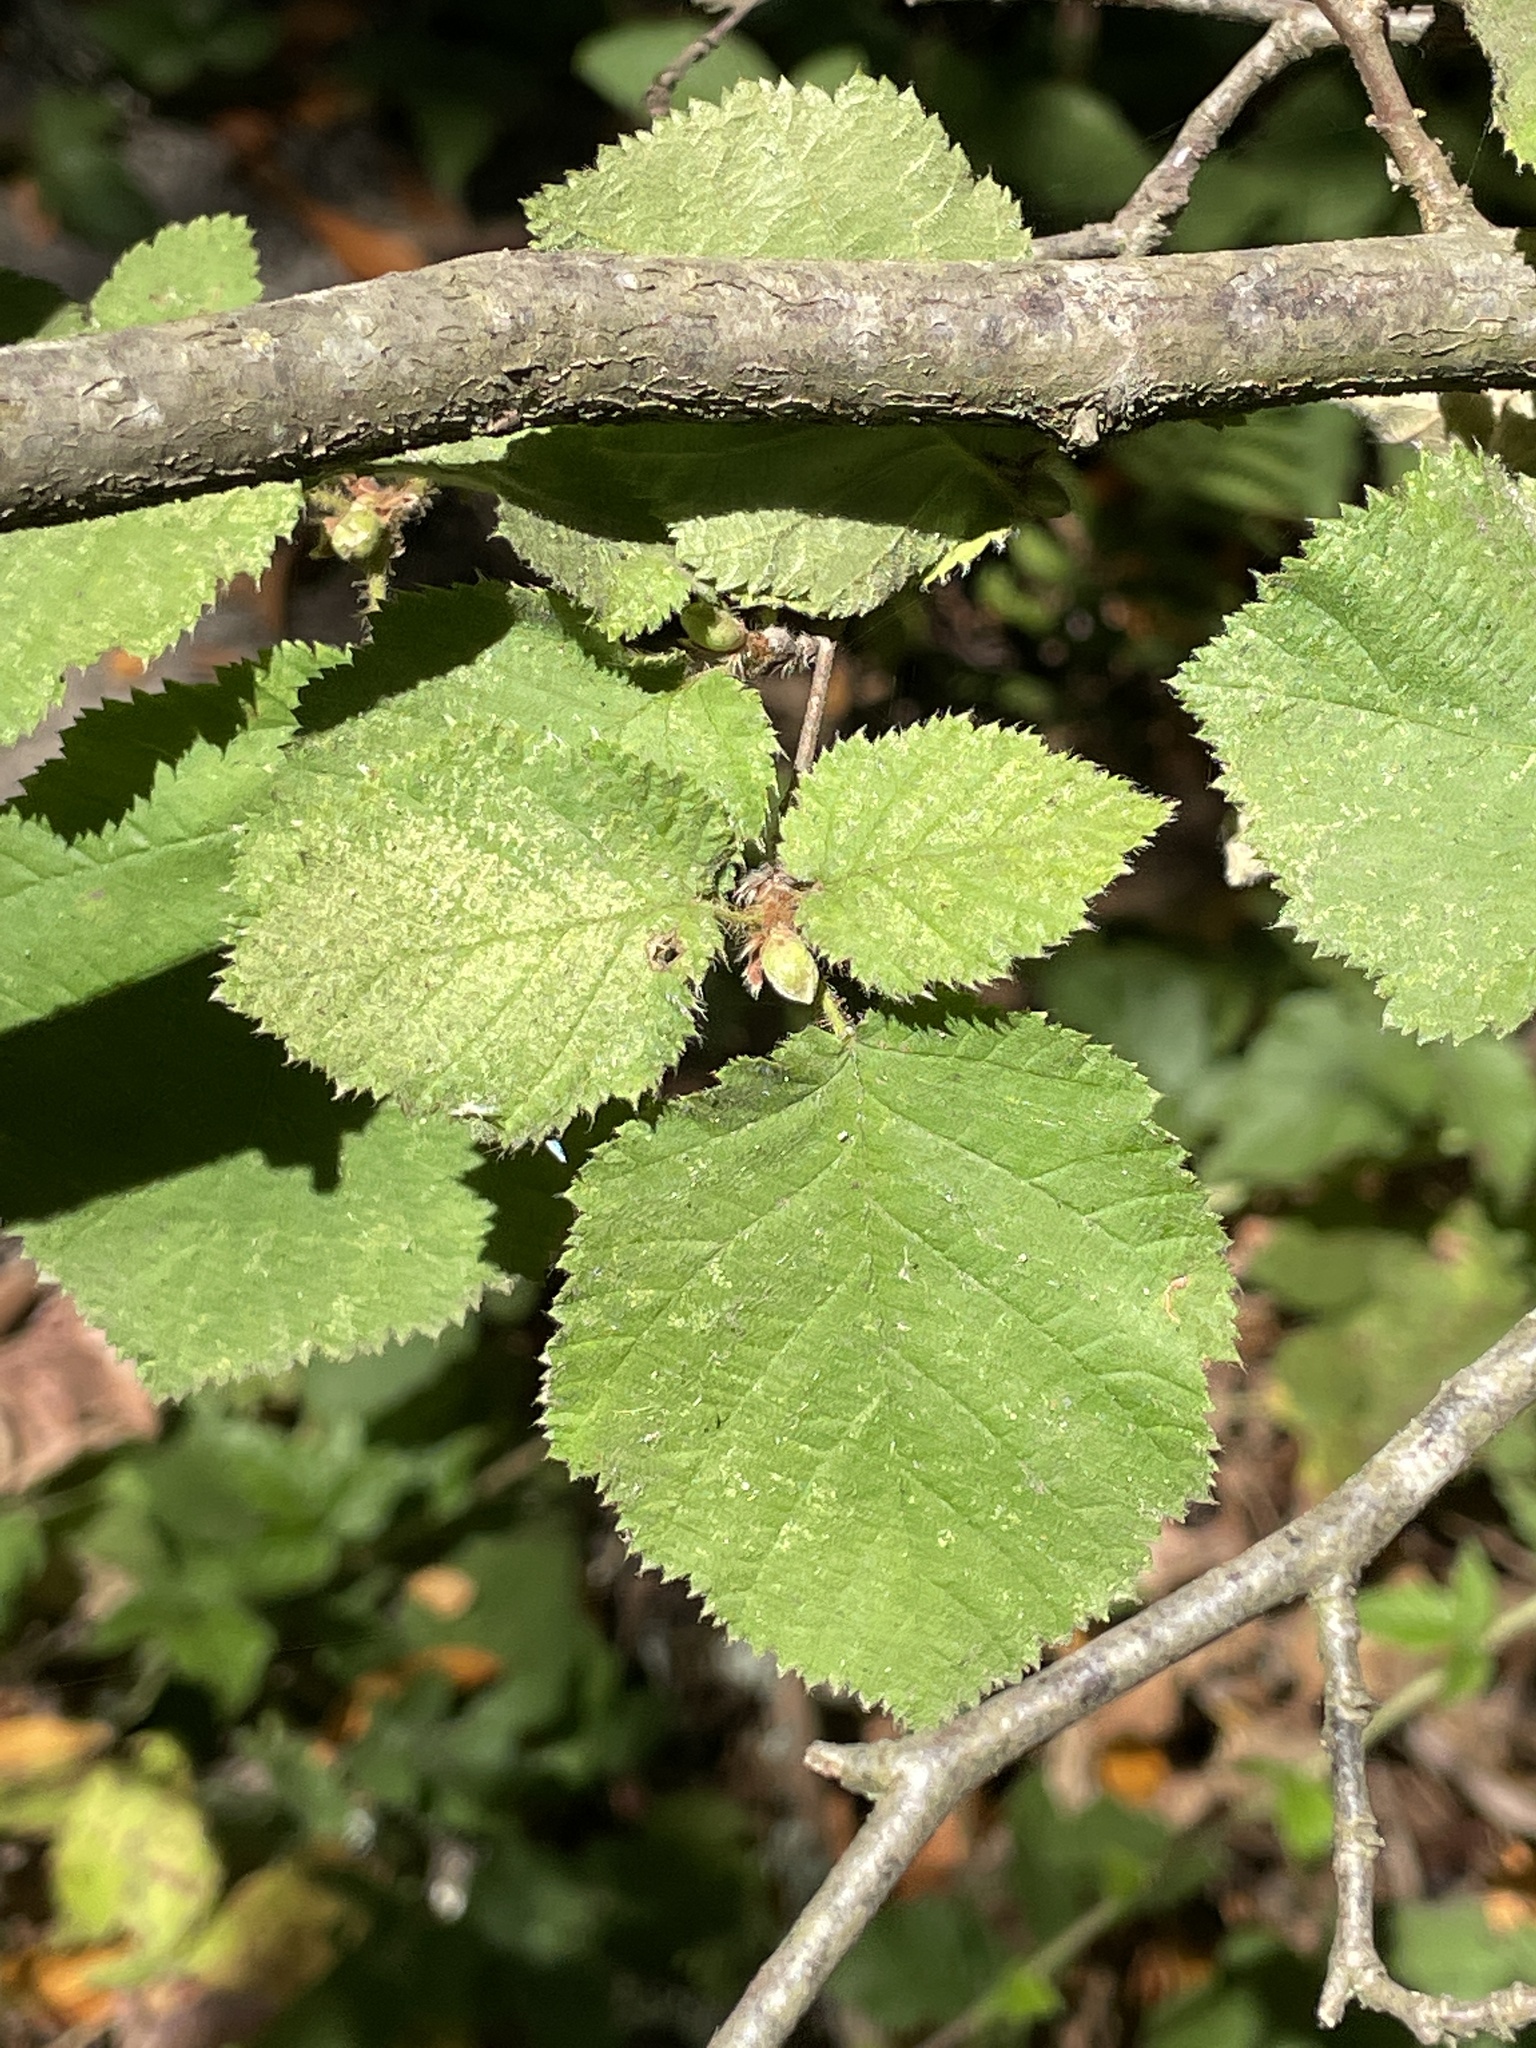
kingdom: Plantae
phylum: Tracheophyta
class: Magnoliopsida
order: Fagales
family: Betulaceae
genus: Corylus
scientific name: Corylus cornuta
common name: Beaked hazel
